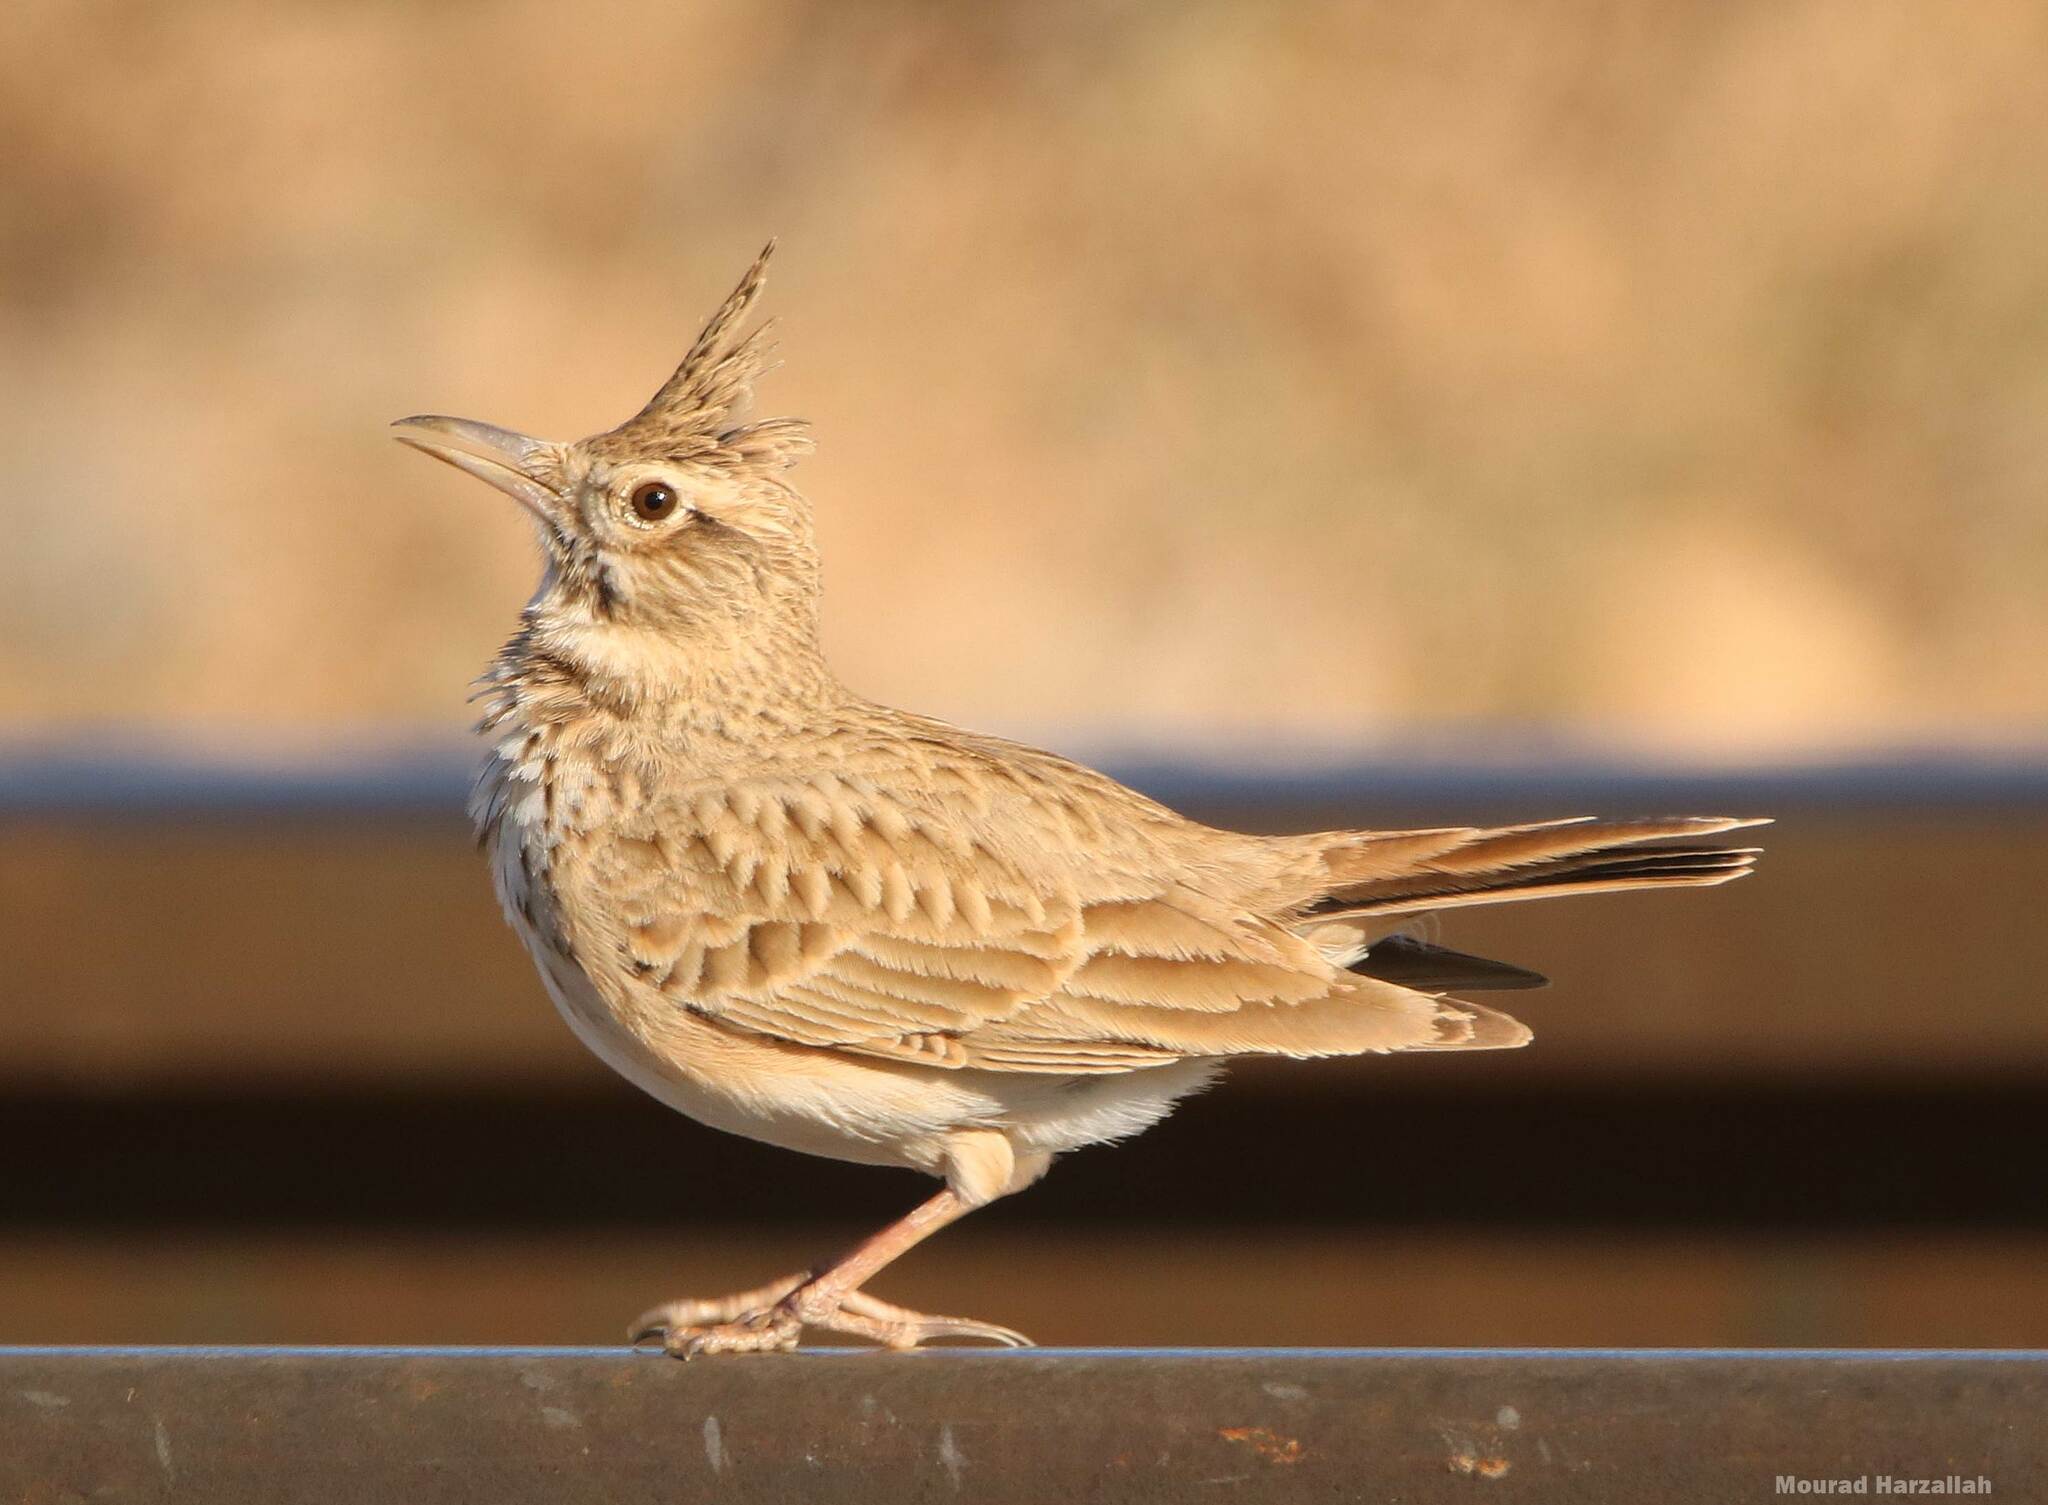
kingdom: Animalia
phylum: Chordata
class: Aves
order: Passeriformes
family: Alaudidae
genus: Galerida
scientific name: Galerida cristata
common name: Crested lark
